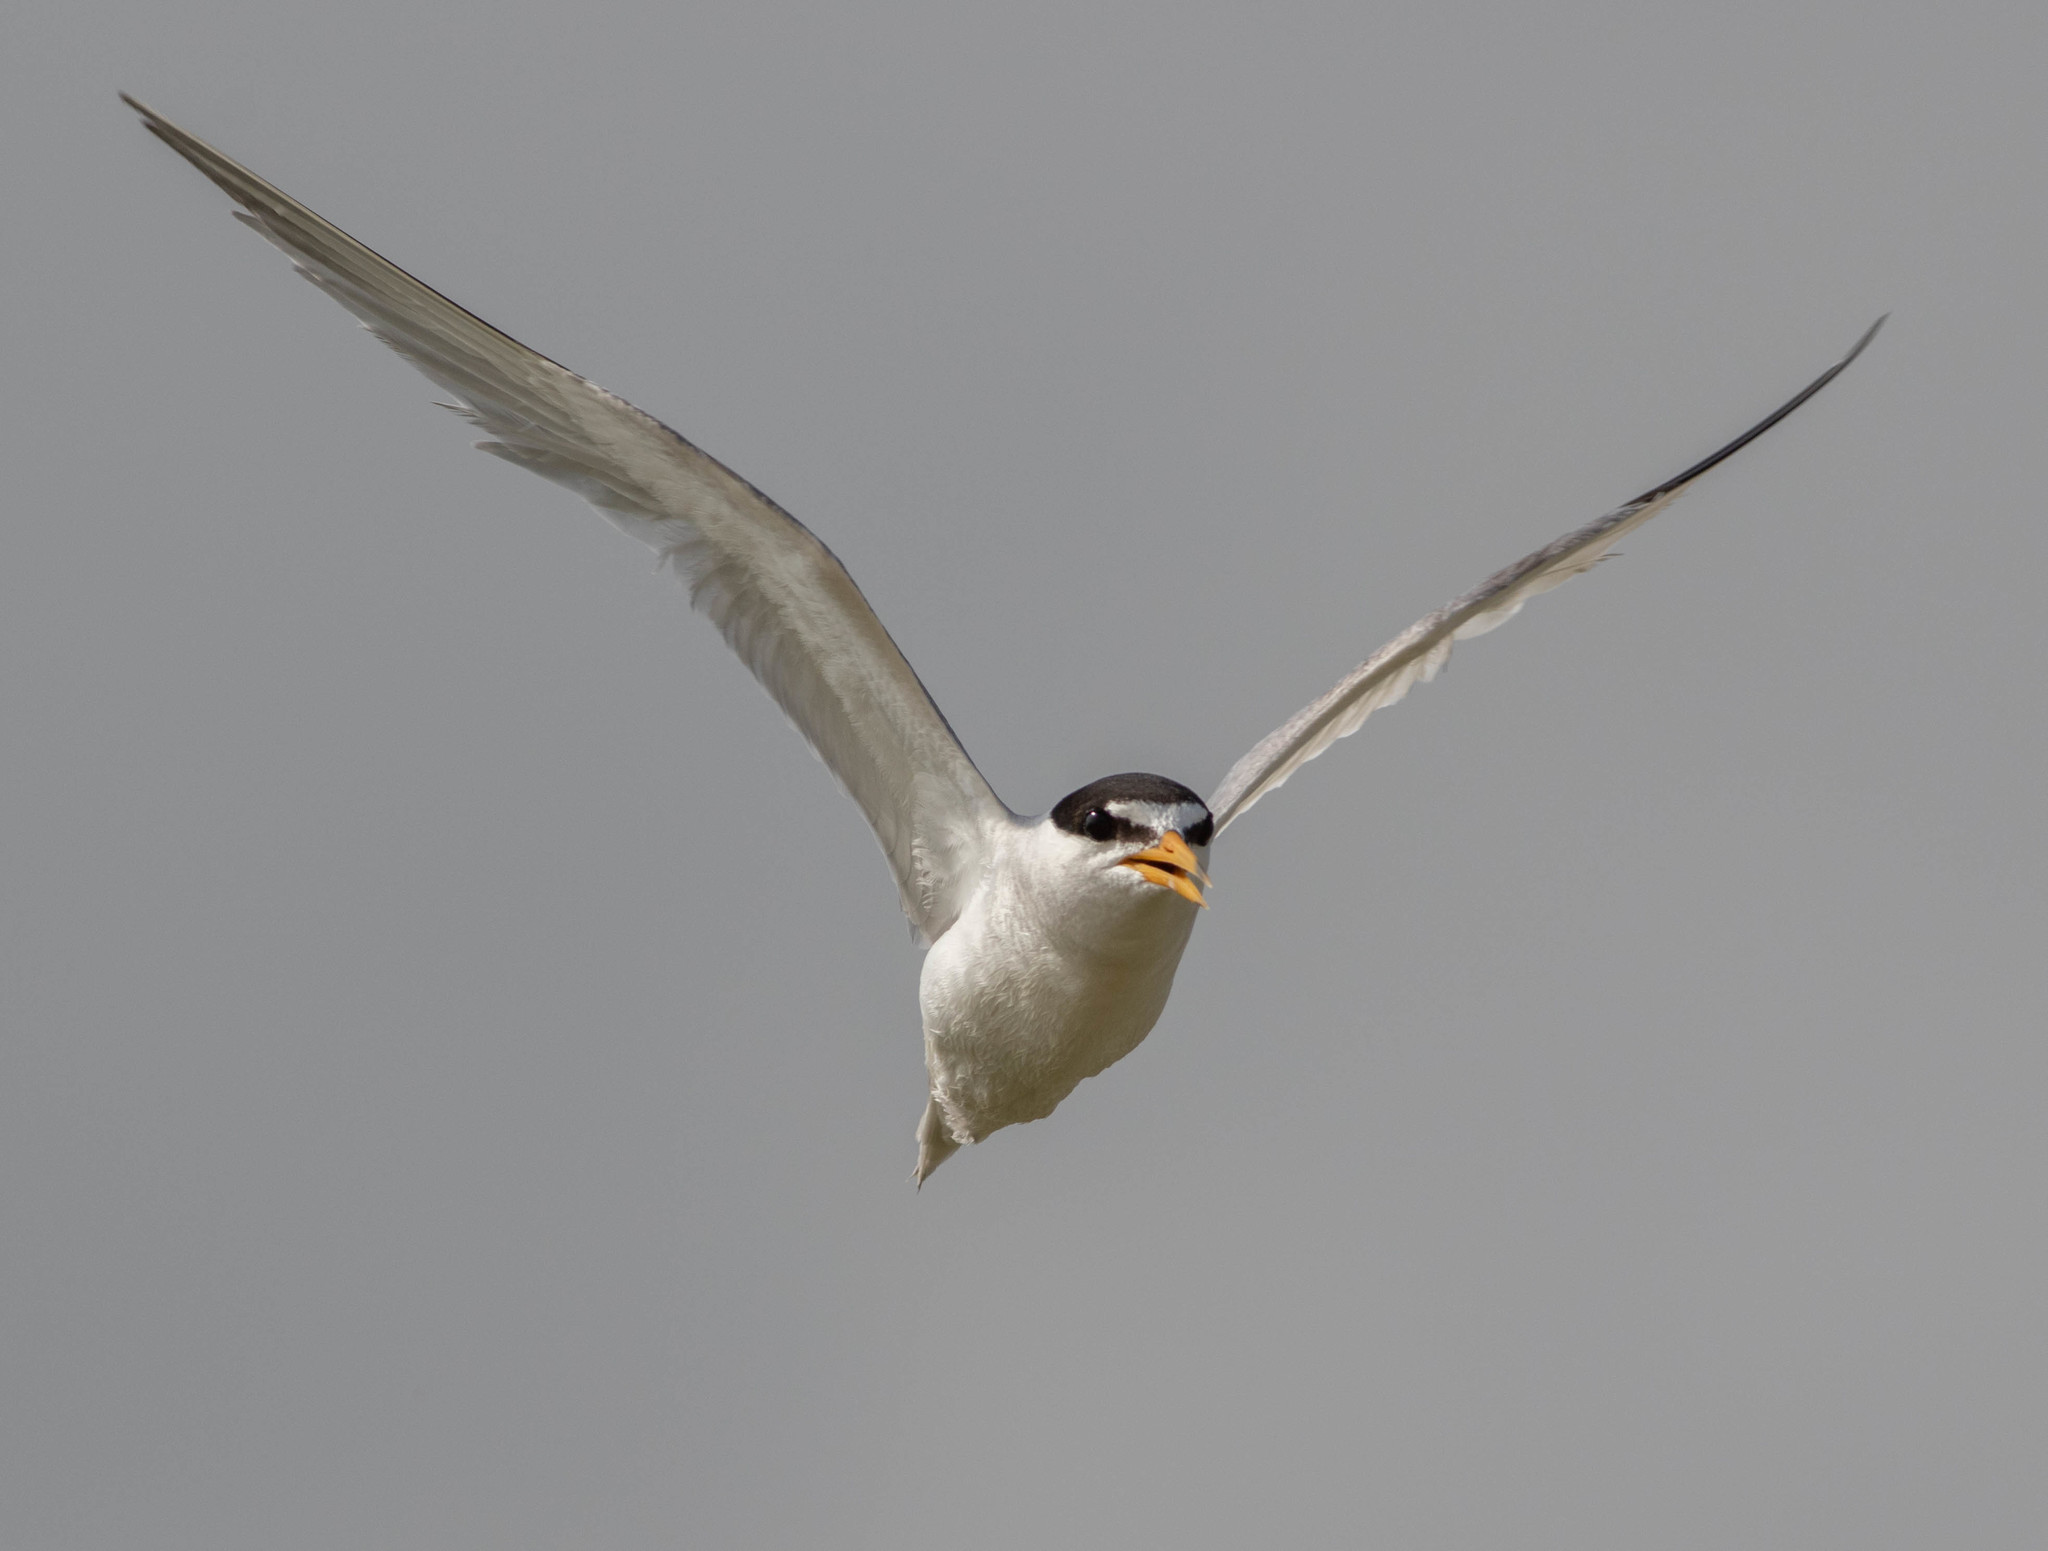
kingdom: Animalia
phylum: Chordata
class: Aves
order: Charadriiformes
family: Laridae
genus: Sternula
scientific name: Sternula antillarum
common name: Least tern
